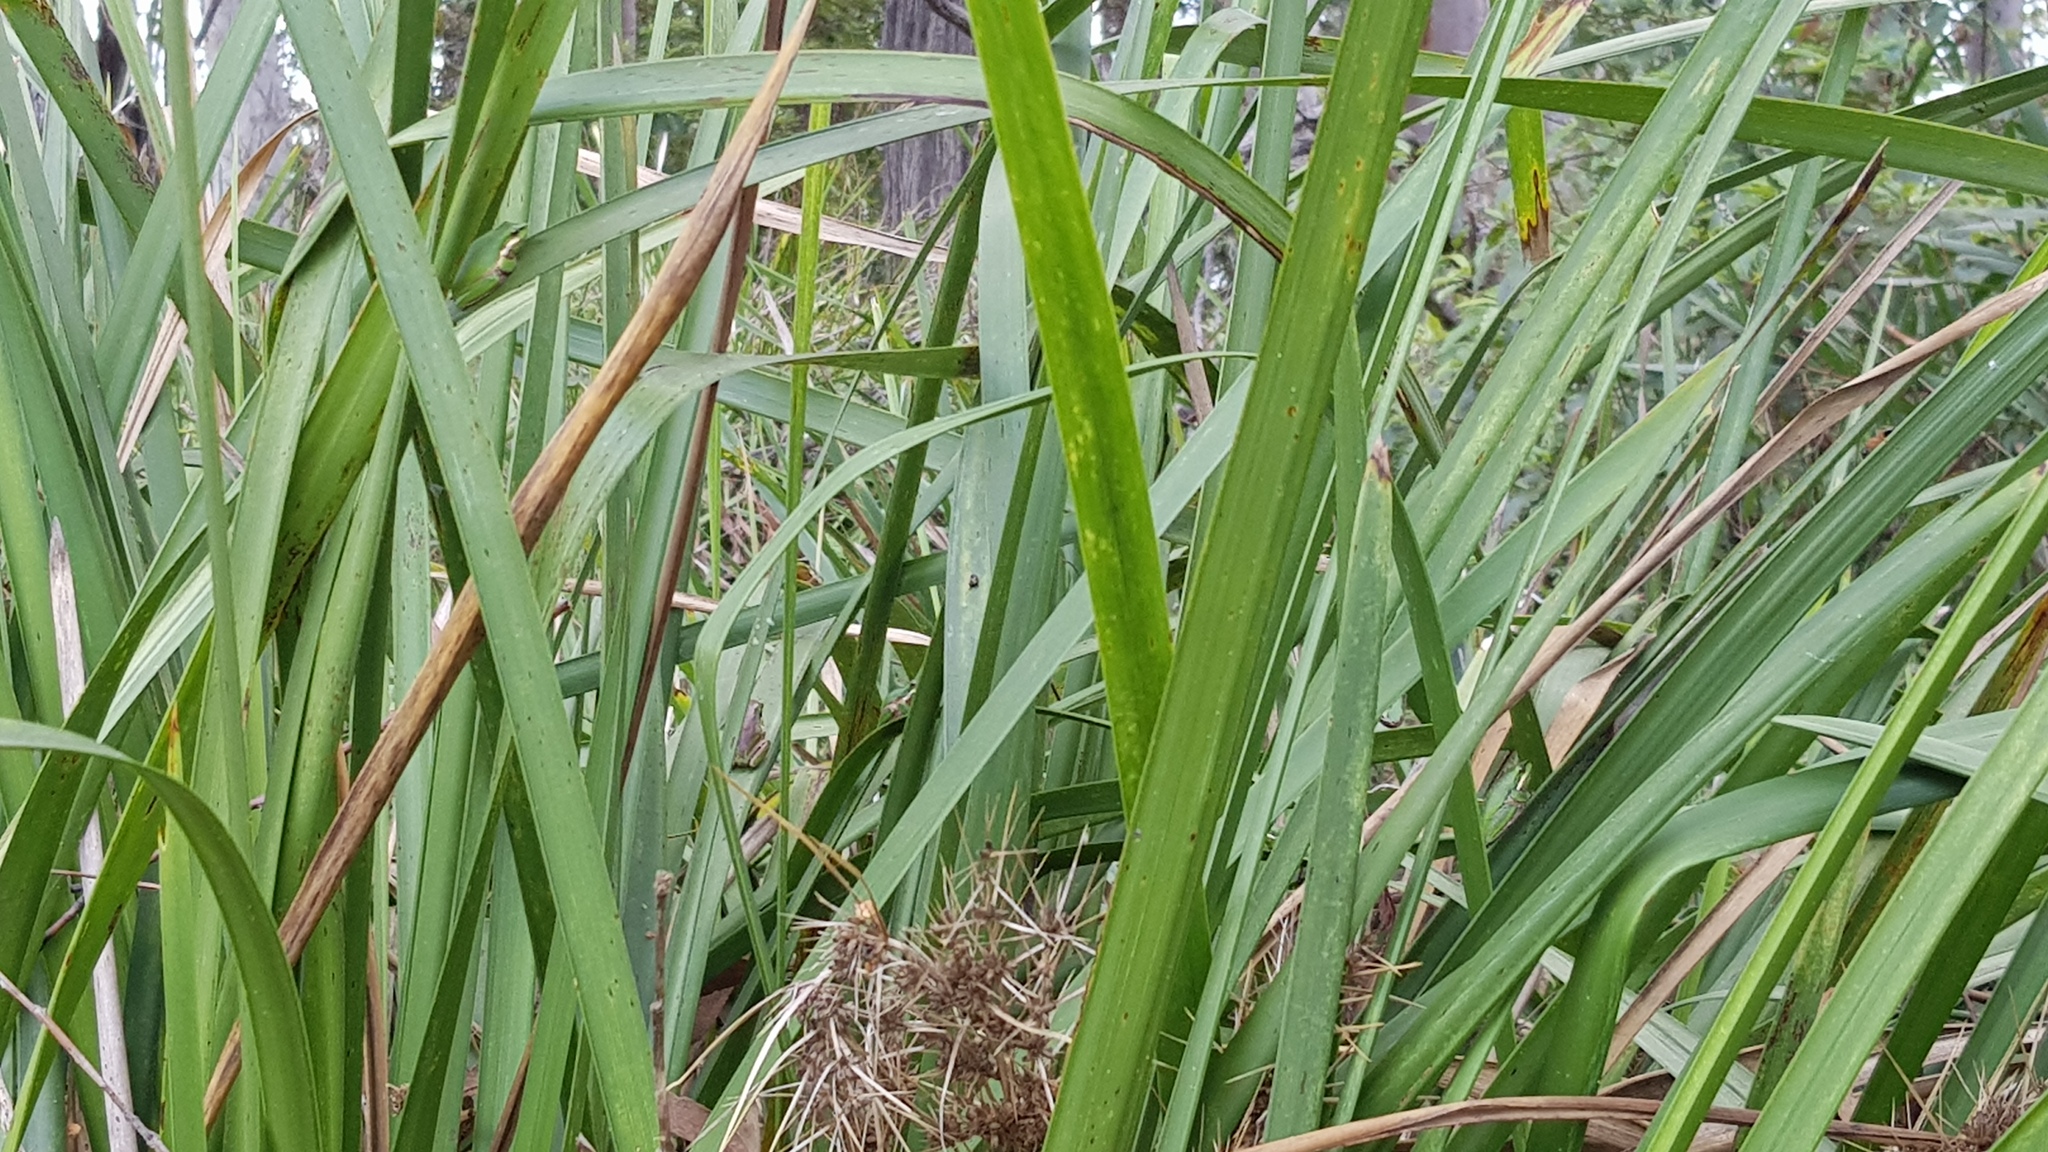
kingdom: Animalia
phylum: Chordata
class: Amphibia
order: Anura
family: Pelodryadidae
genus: Litoria
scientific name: Litoria fallax
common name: Eastern dwarf treefrog
